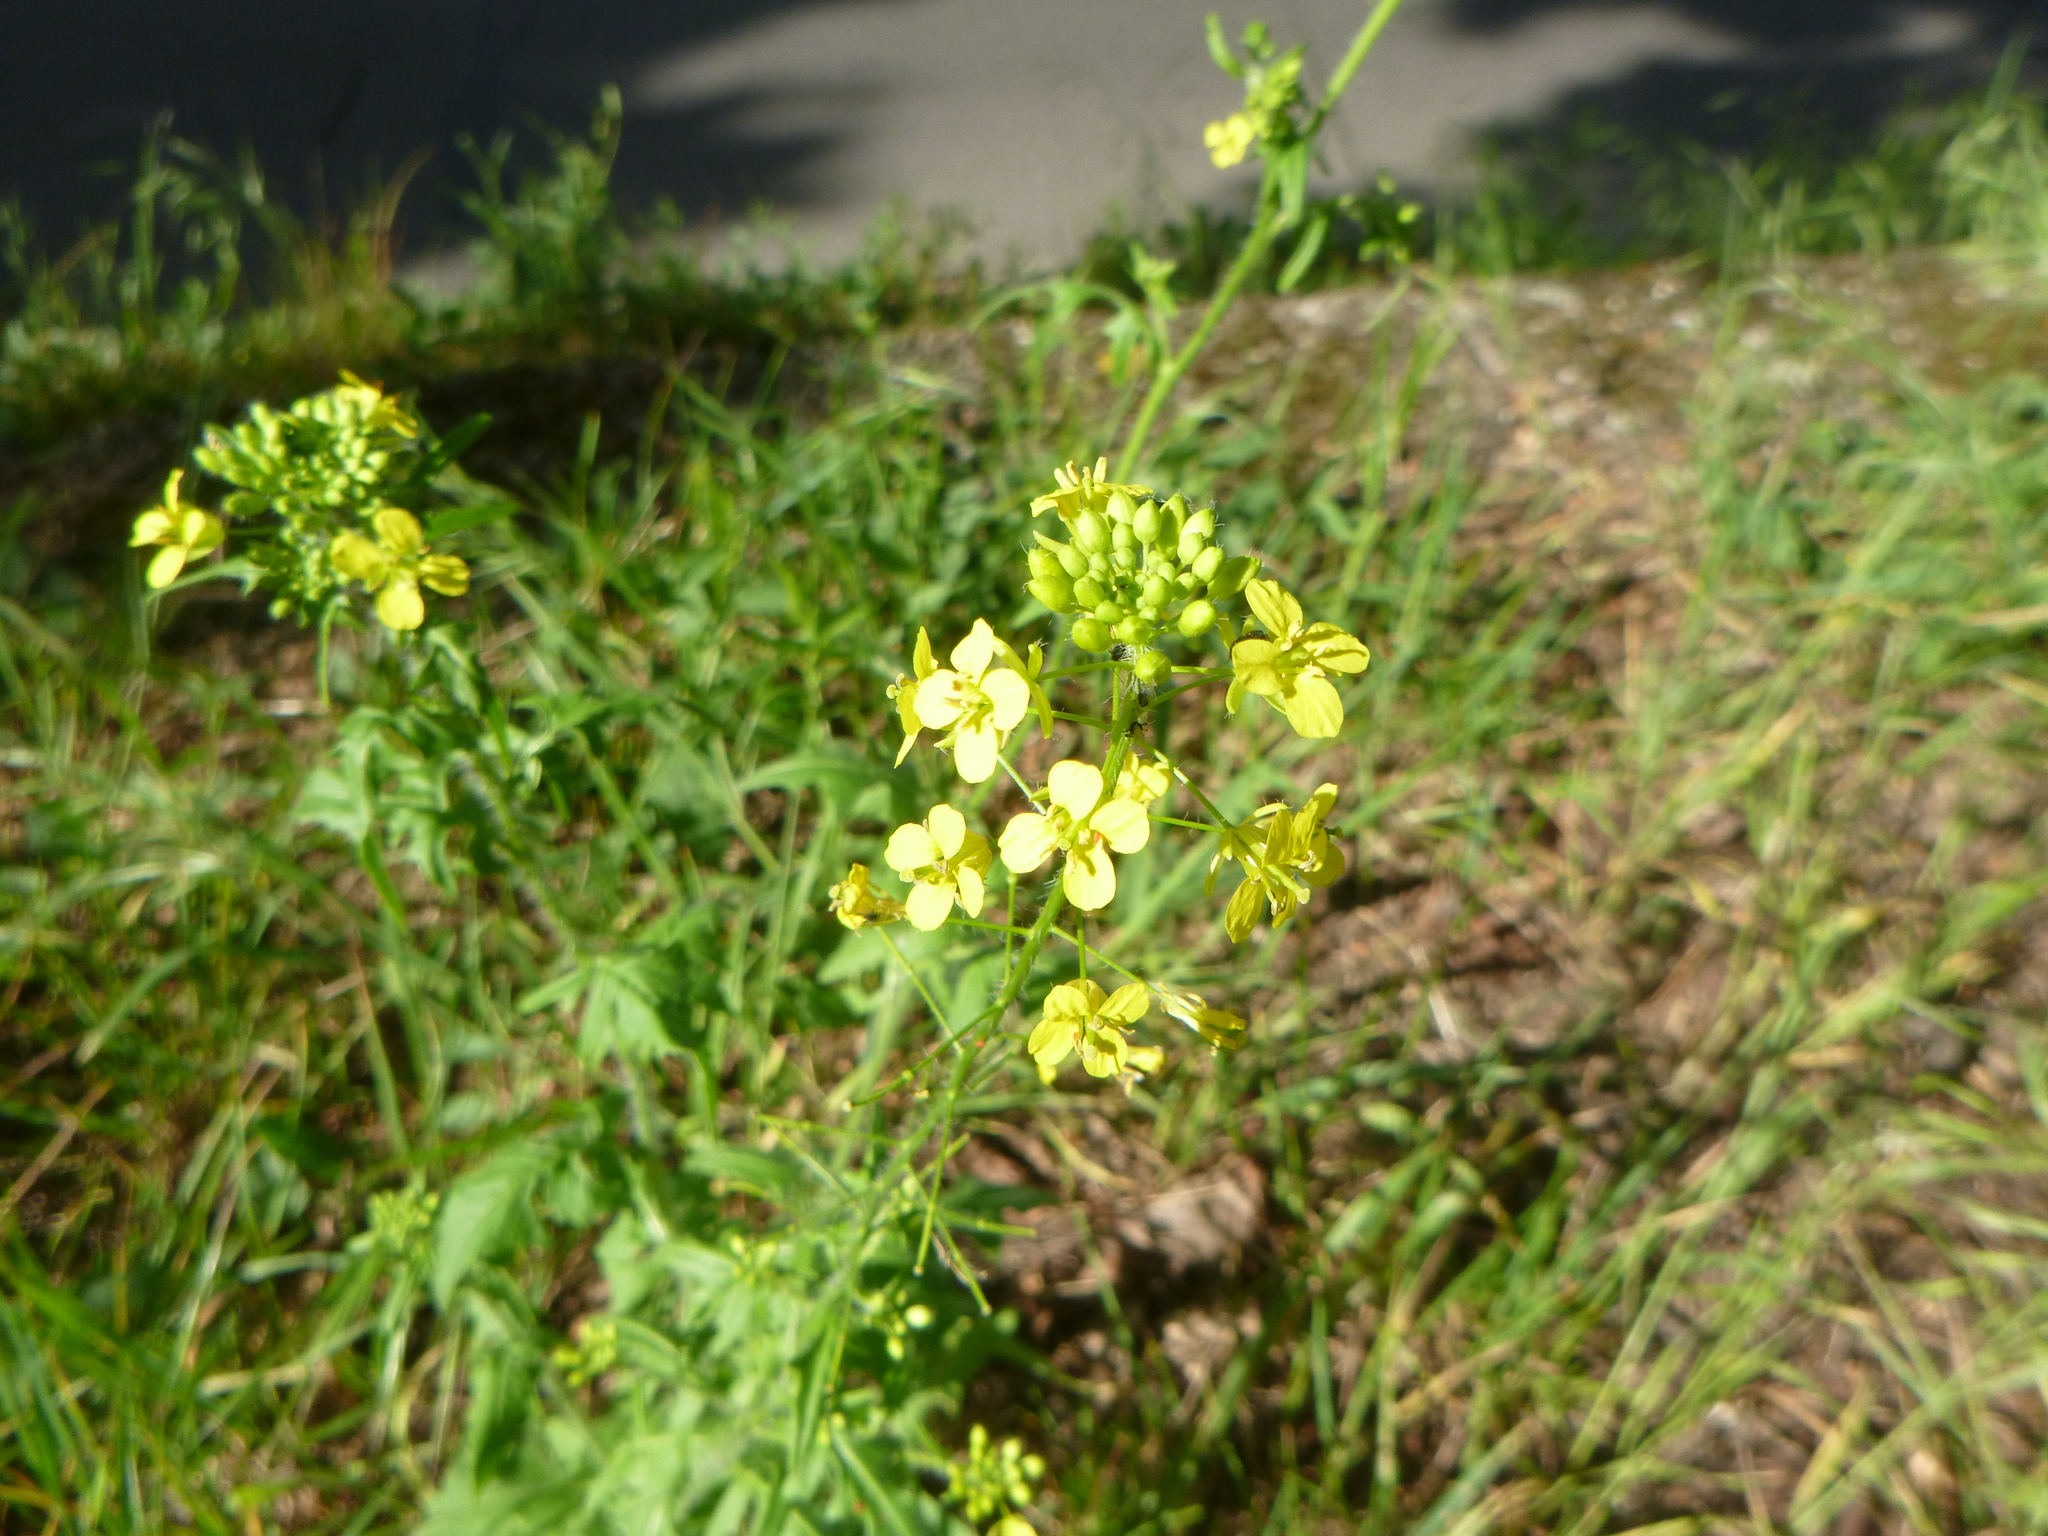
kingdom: Plantae
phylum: Tracheophyta
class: Magnoliopsida
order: Brassicales
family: Brassicaceae
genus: Sisymbrium
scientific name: Sisymbrium loeselii
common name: False london-rocket
